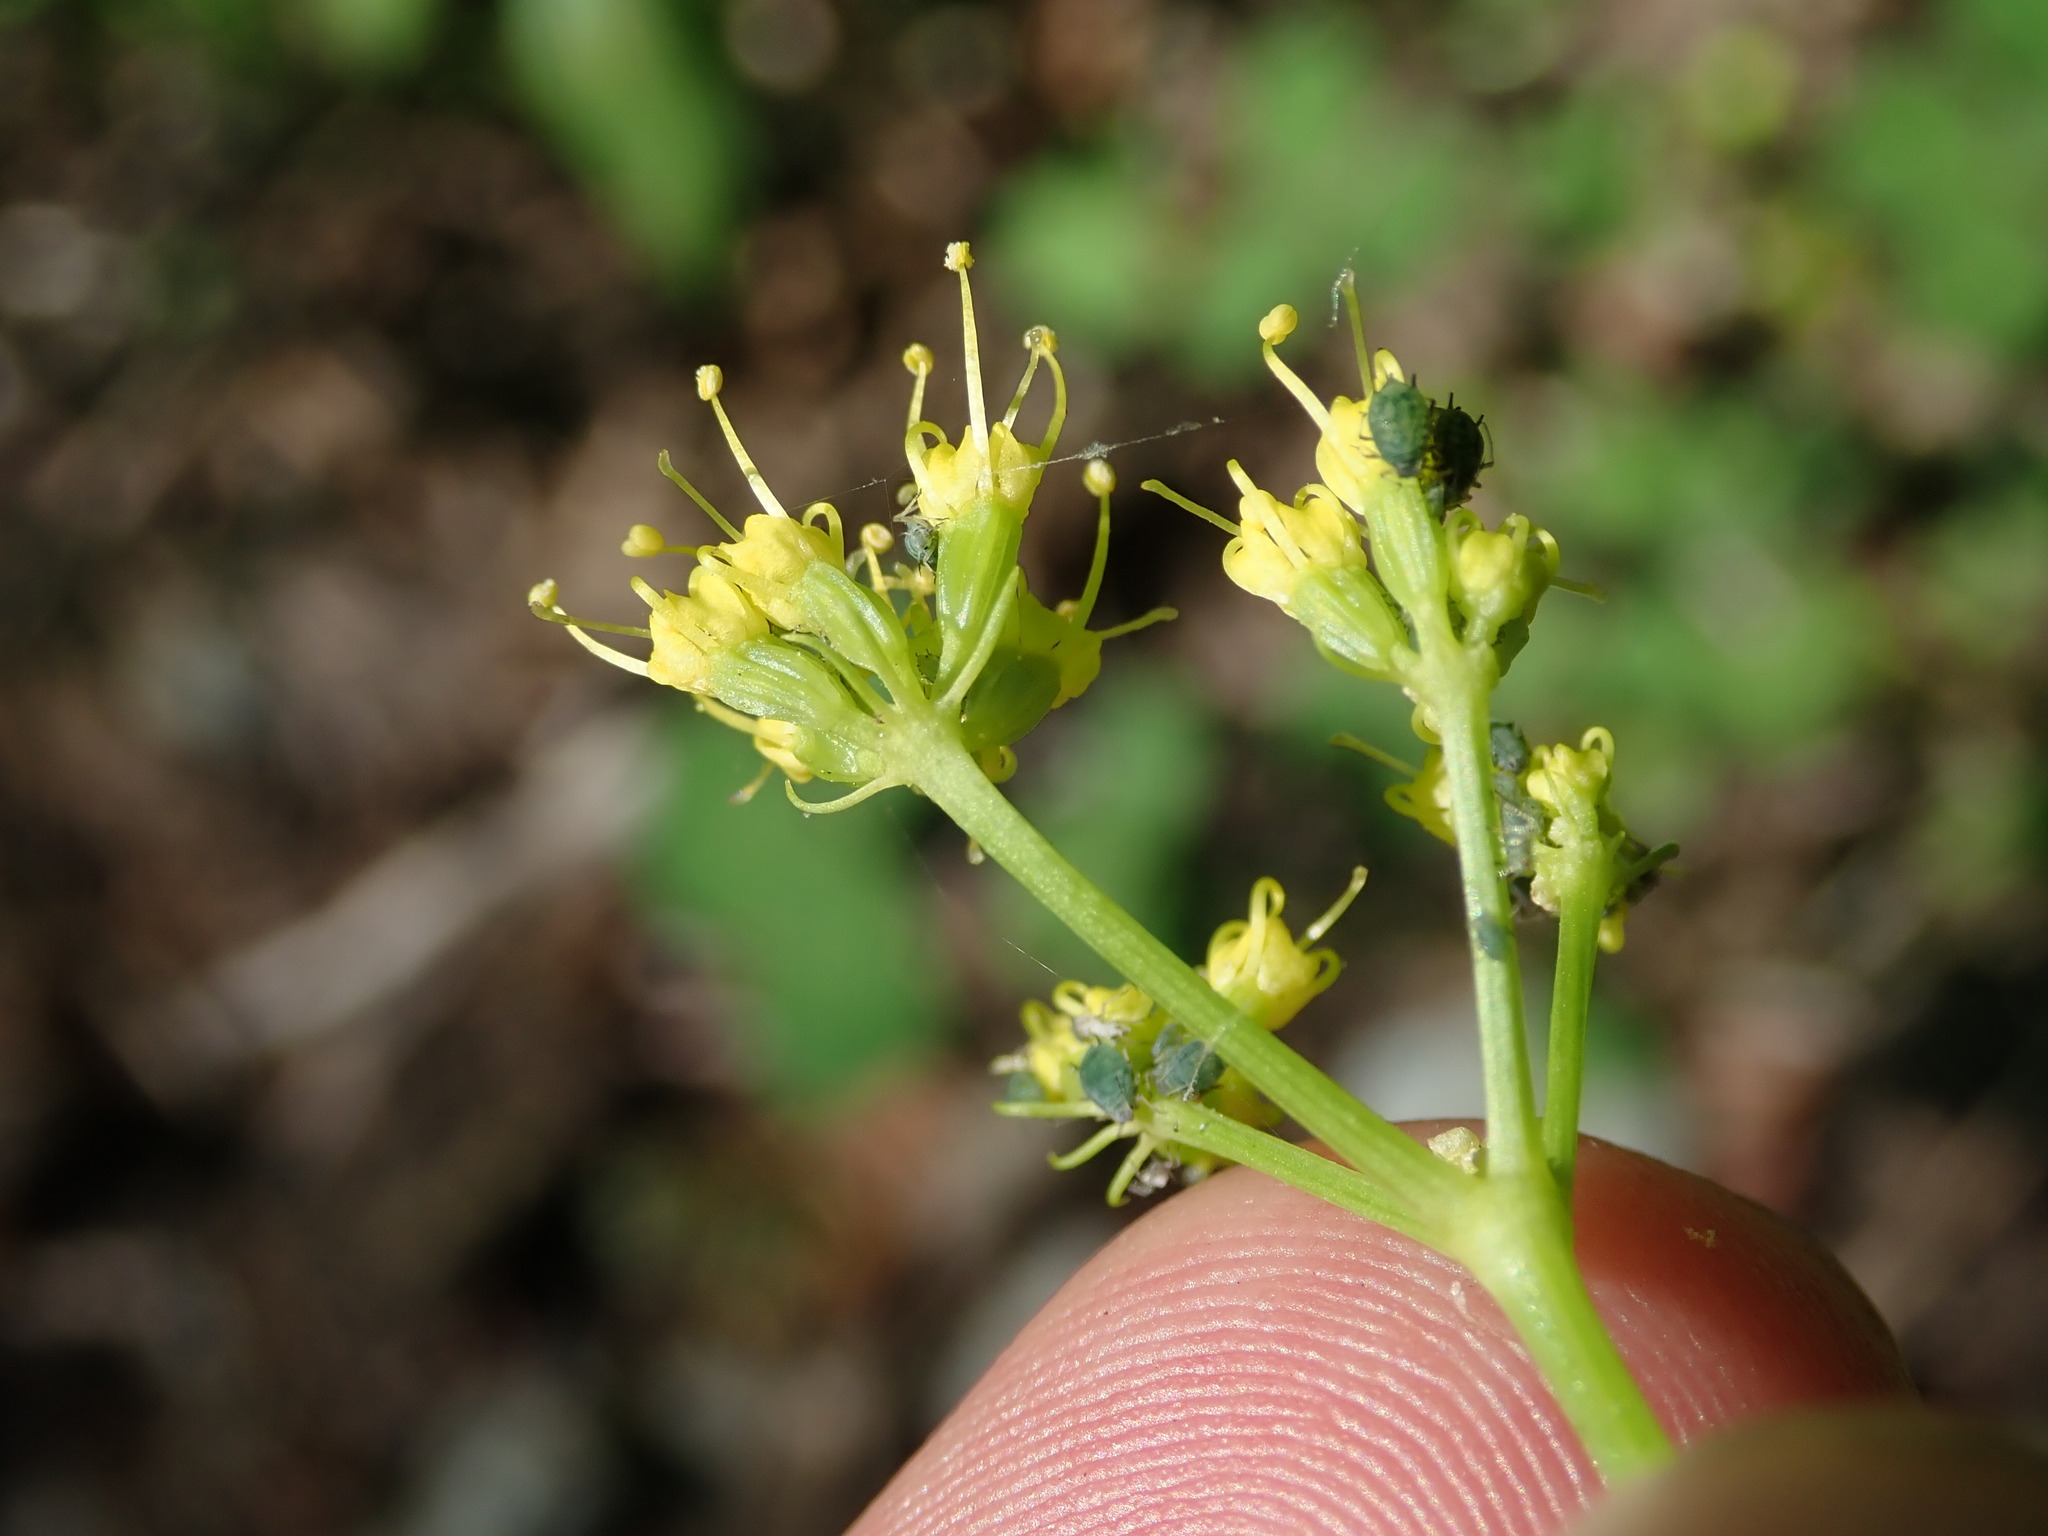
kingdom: Plantae
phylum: Tracheophyta
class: Magnoliopsida
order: Apiales
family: Apiaceae
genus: Lomatium
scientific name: Lomatium brandegeei
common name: Brandegee's desert-parsley
